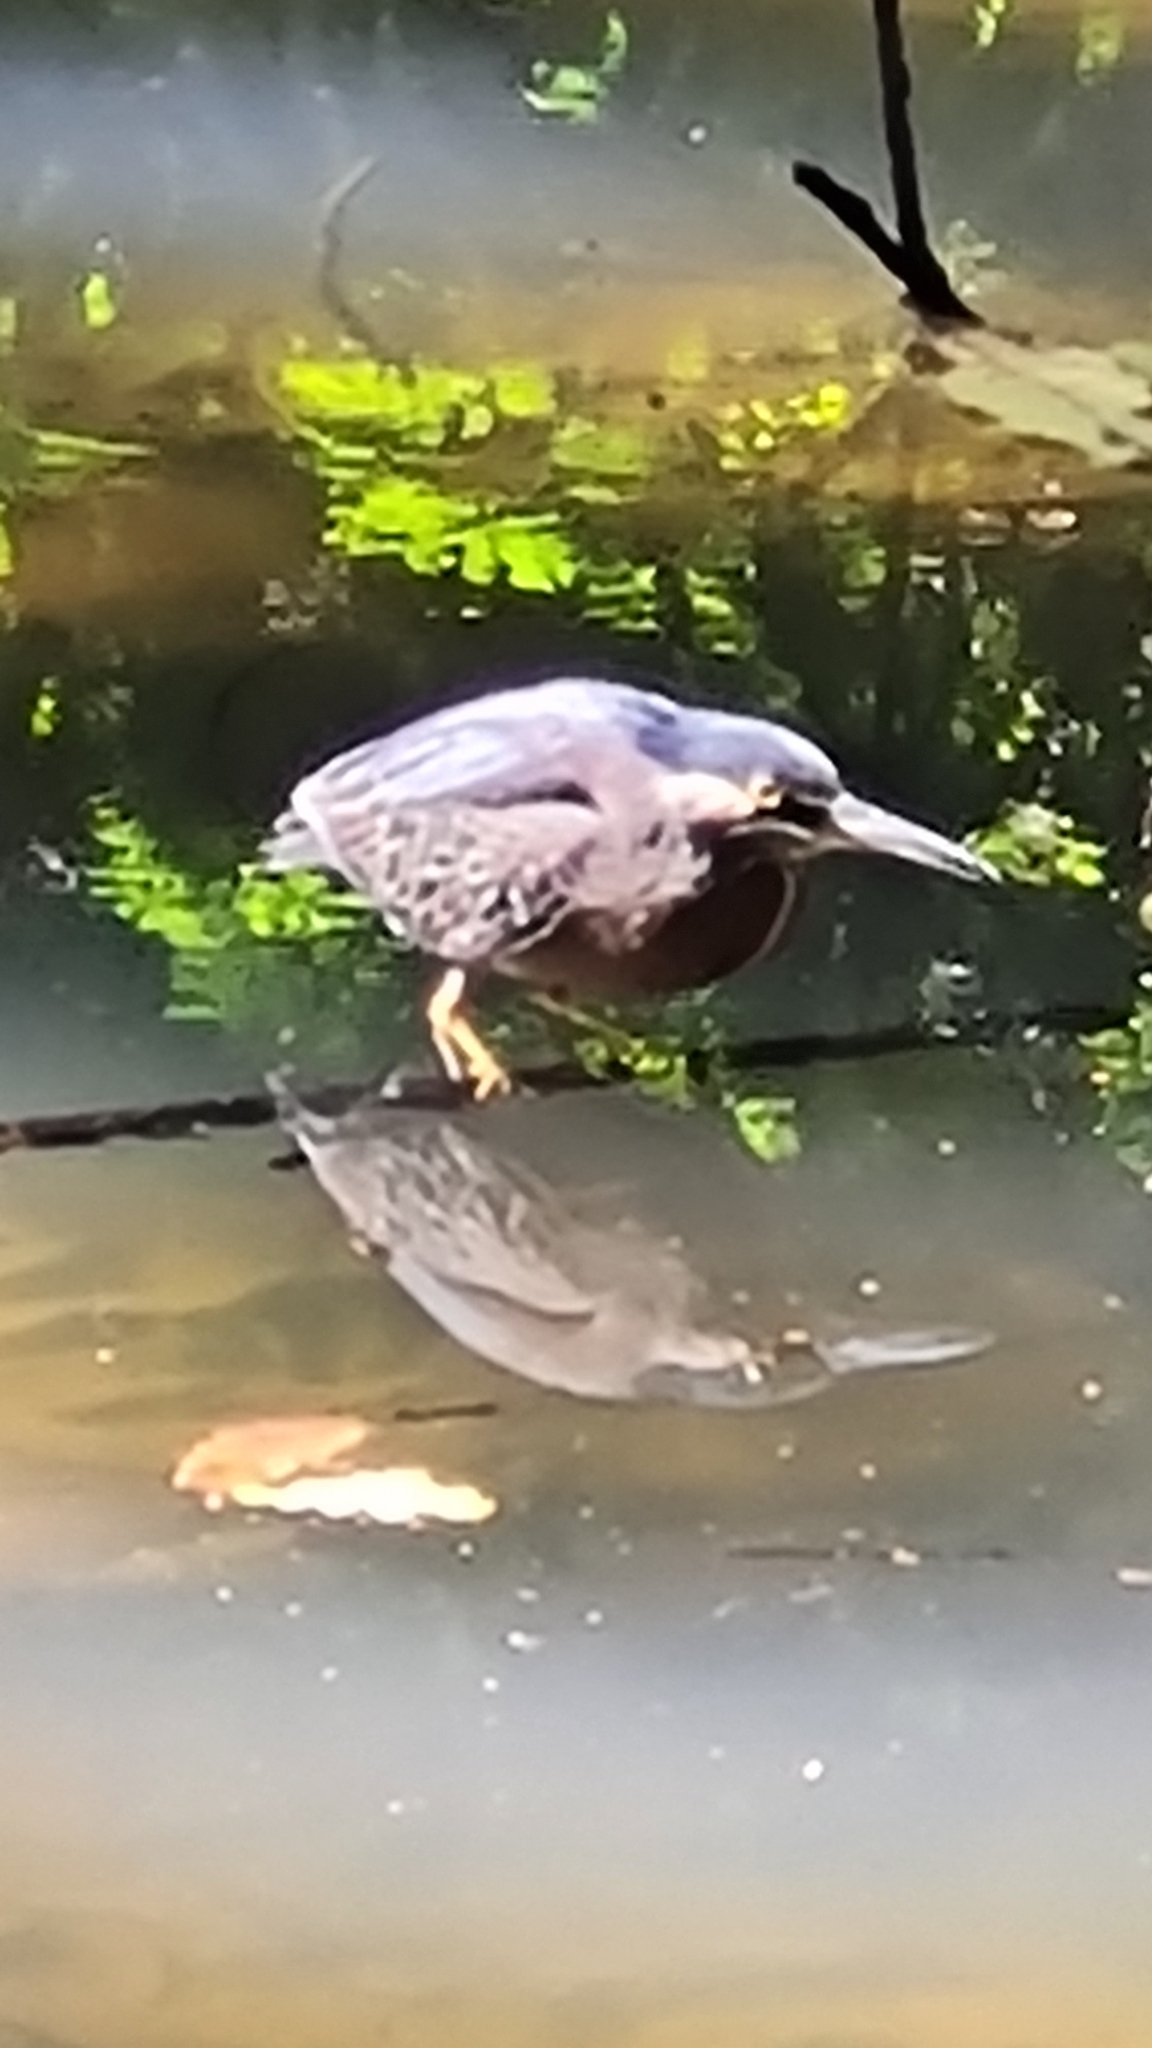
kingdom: Animalia
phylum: Chordata
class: Aves
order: Pelecaniformes
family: Ardeidae
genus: Butorides
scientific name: Butorides striata
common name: Striated heron
